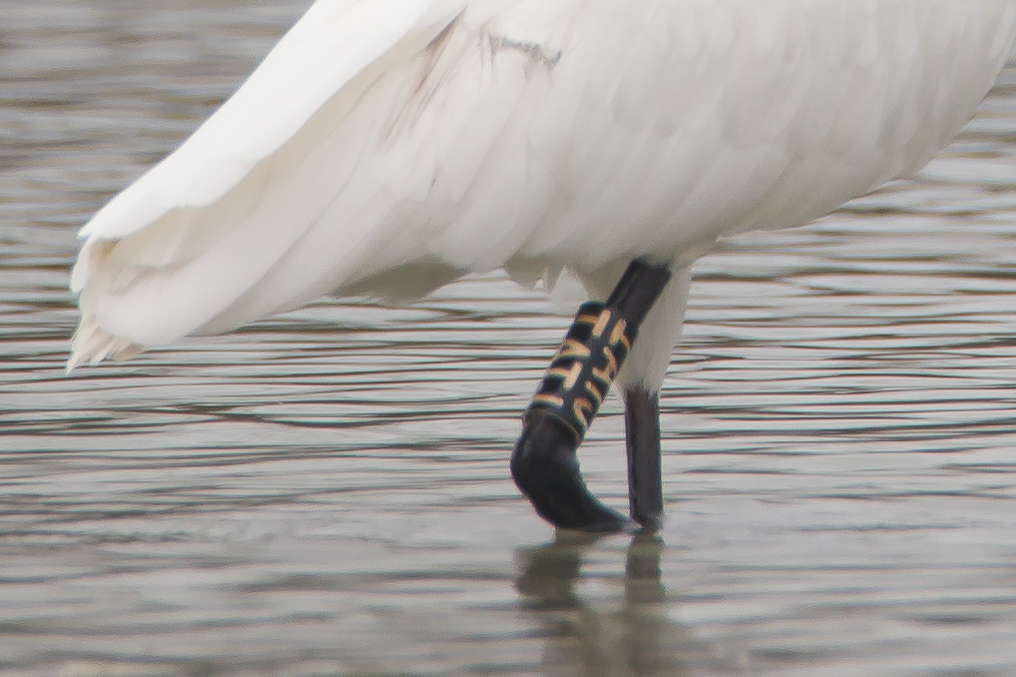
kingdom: Animalia
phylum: Chordata
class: Aves
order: Pelecaniformes
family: Threskiornithidae
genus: Platalea
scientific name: Platalea leucorodia
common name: Eurasian spoonbill
